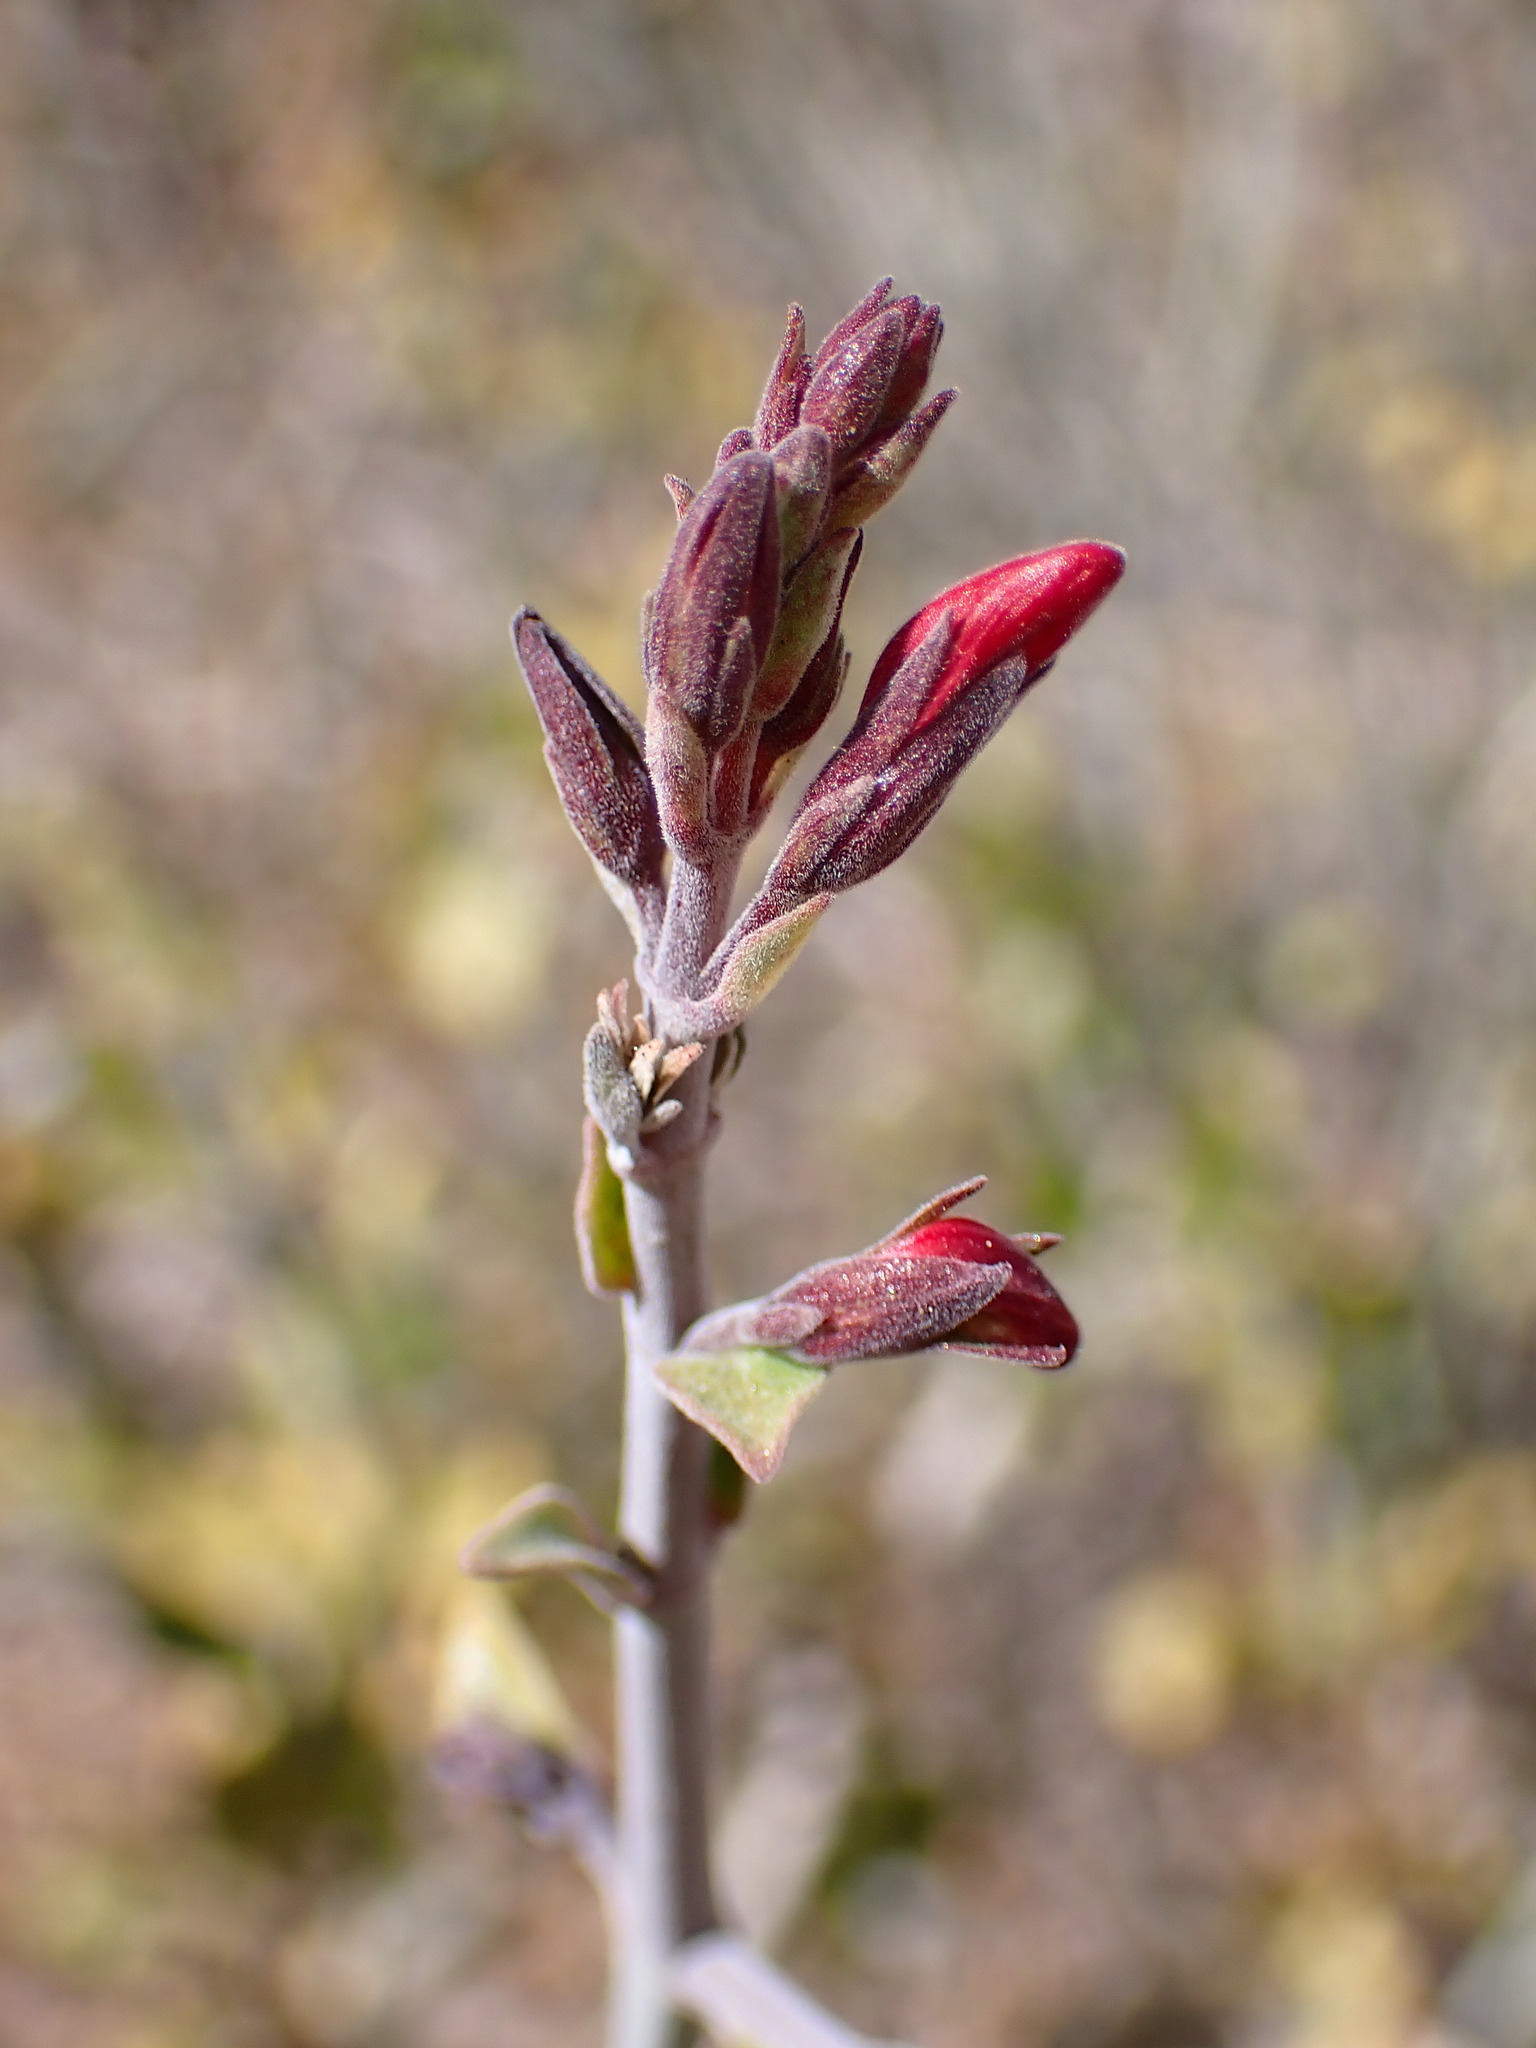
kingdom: Plantae
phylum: Tracheophyta
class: Magnoliopsida
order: Lamiales
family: Acanthaceae
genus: Justicia
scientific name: Justicia californica
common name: Chuparosa-honeysuckle
